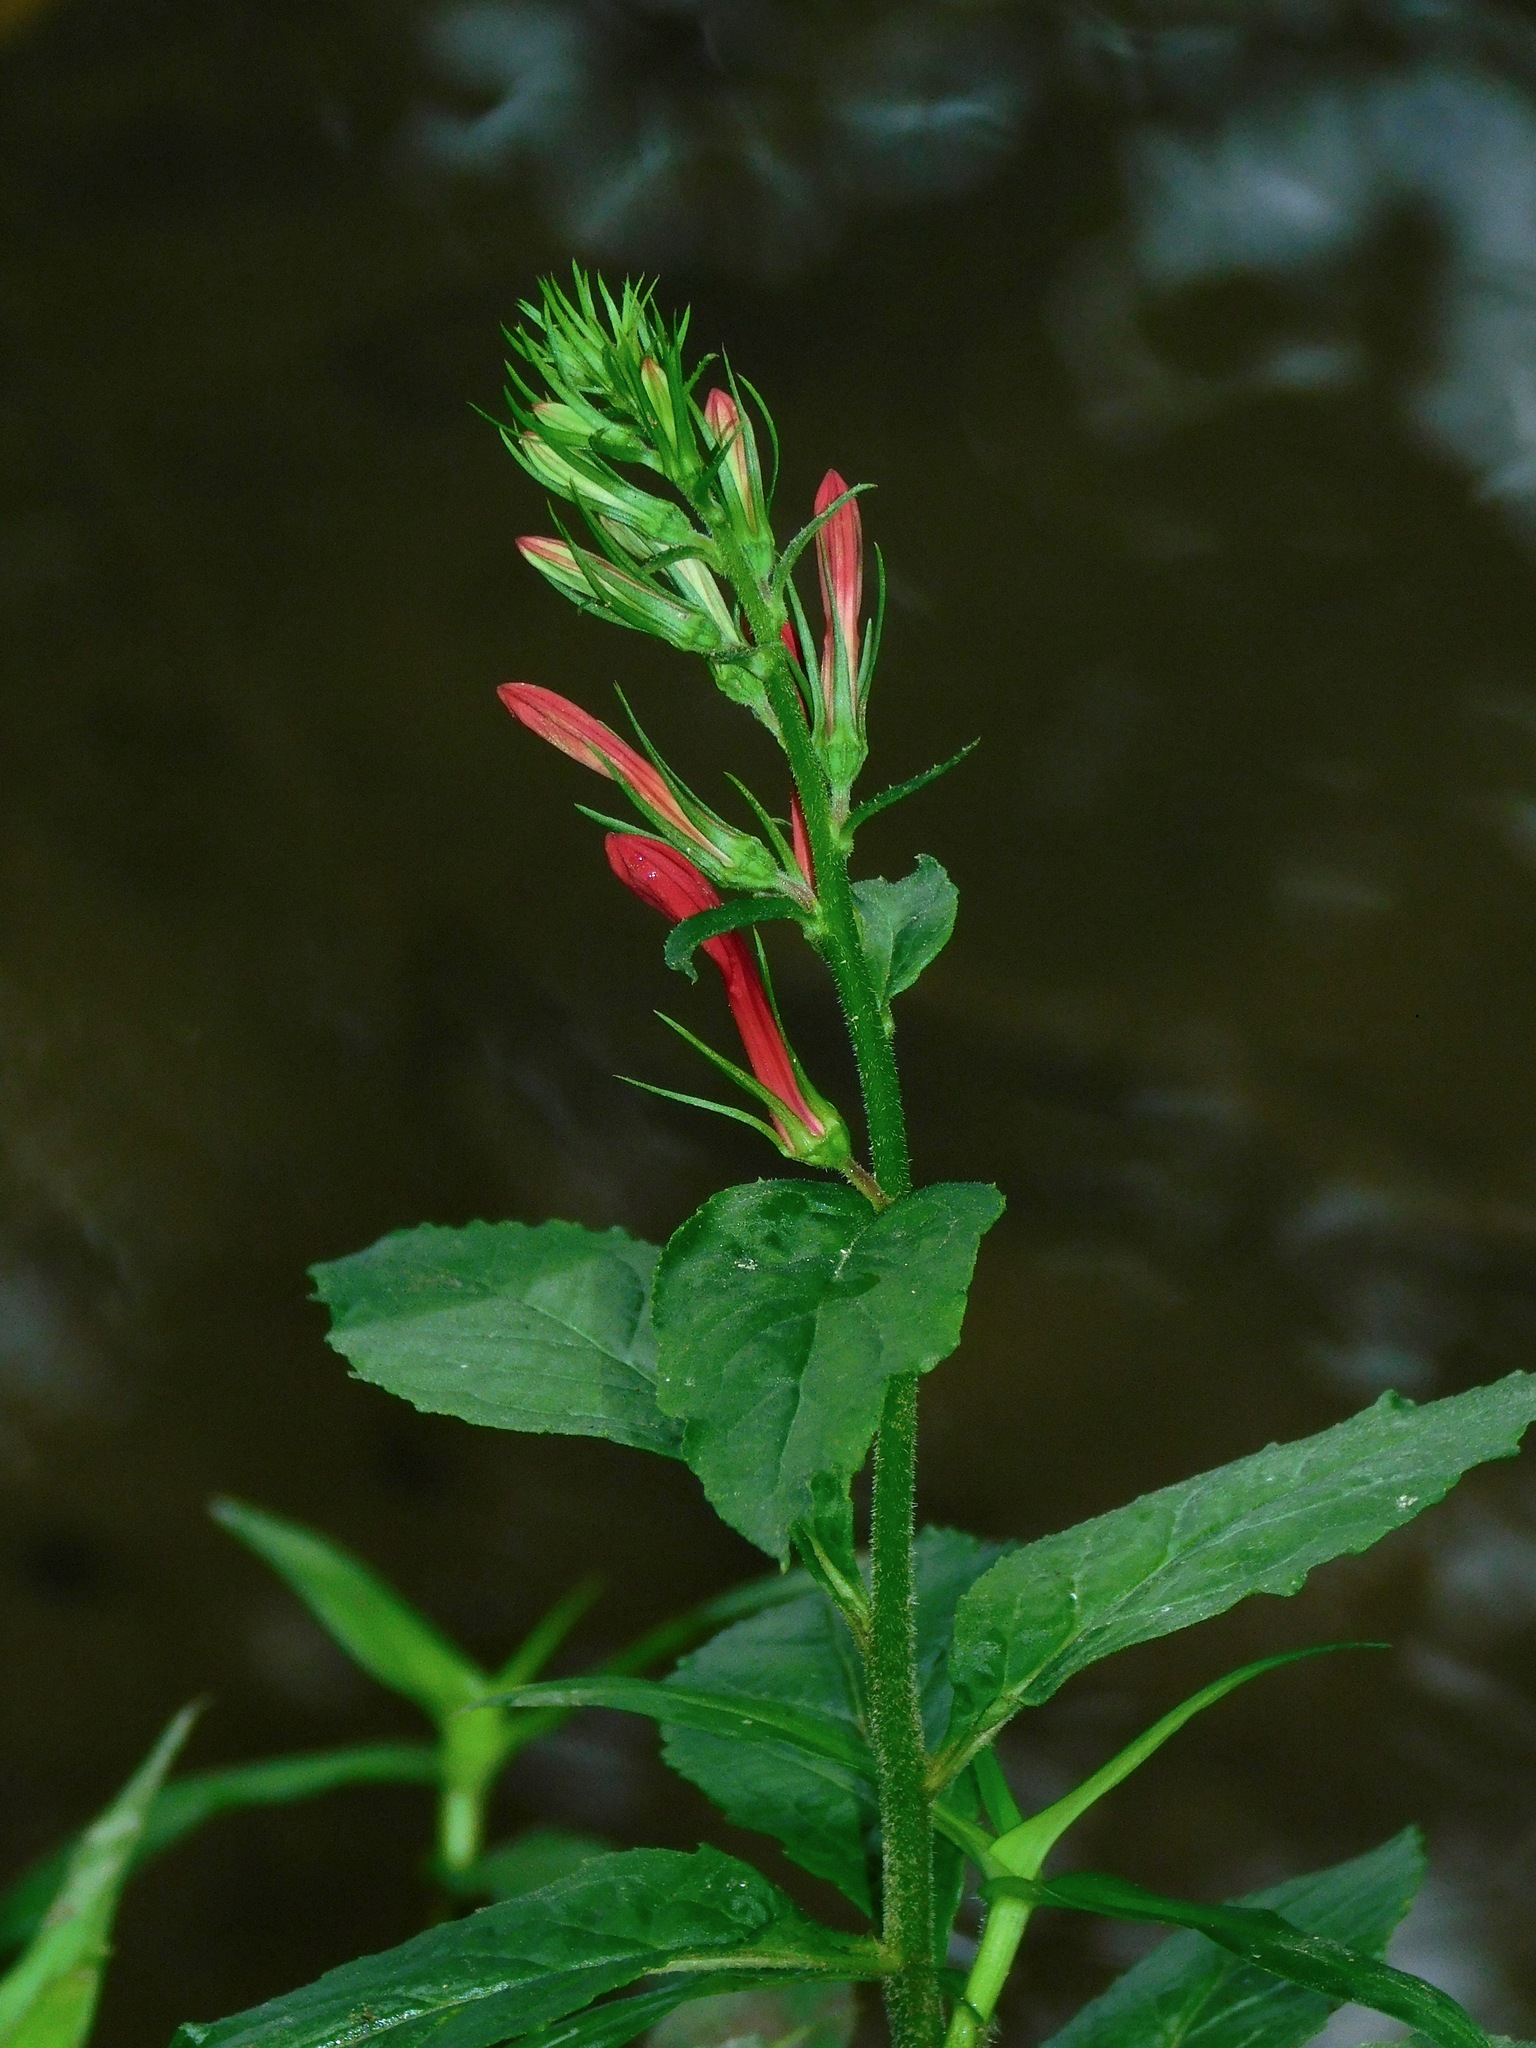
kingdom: Plantae
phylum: Tracheophyta
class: Magnoliopsida
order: Asterales
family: Campanulaceae
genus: Lobelia
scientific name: Lobelia cardinalis
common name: Cardinal flower
